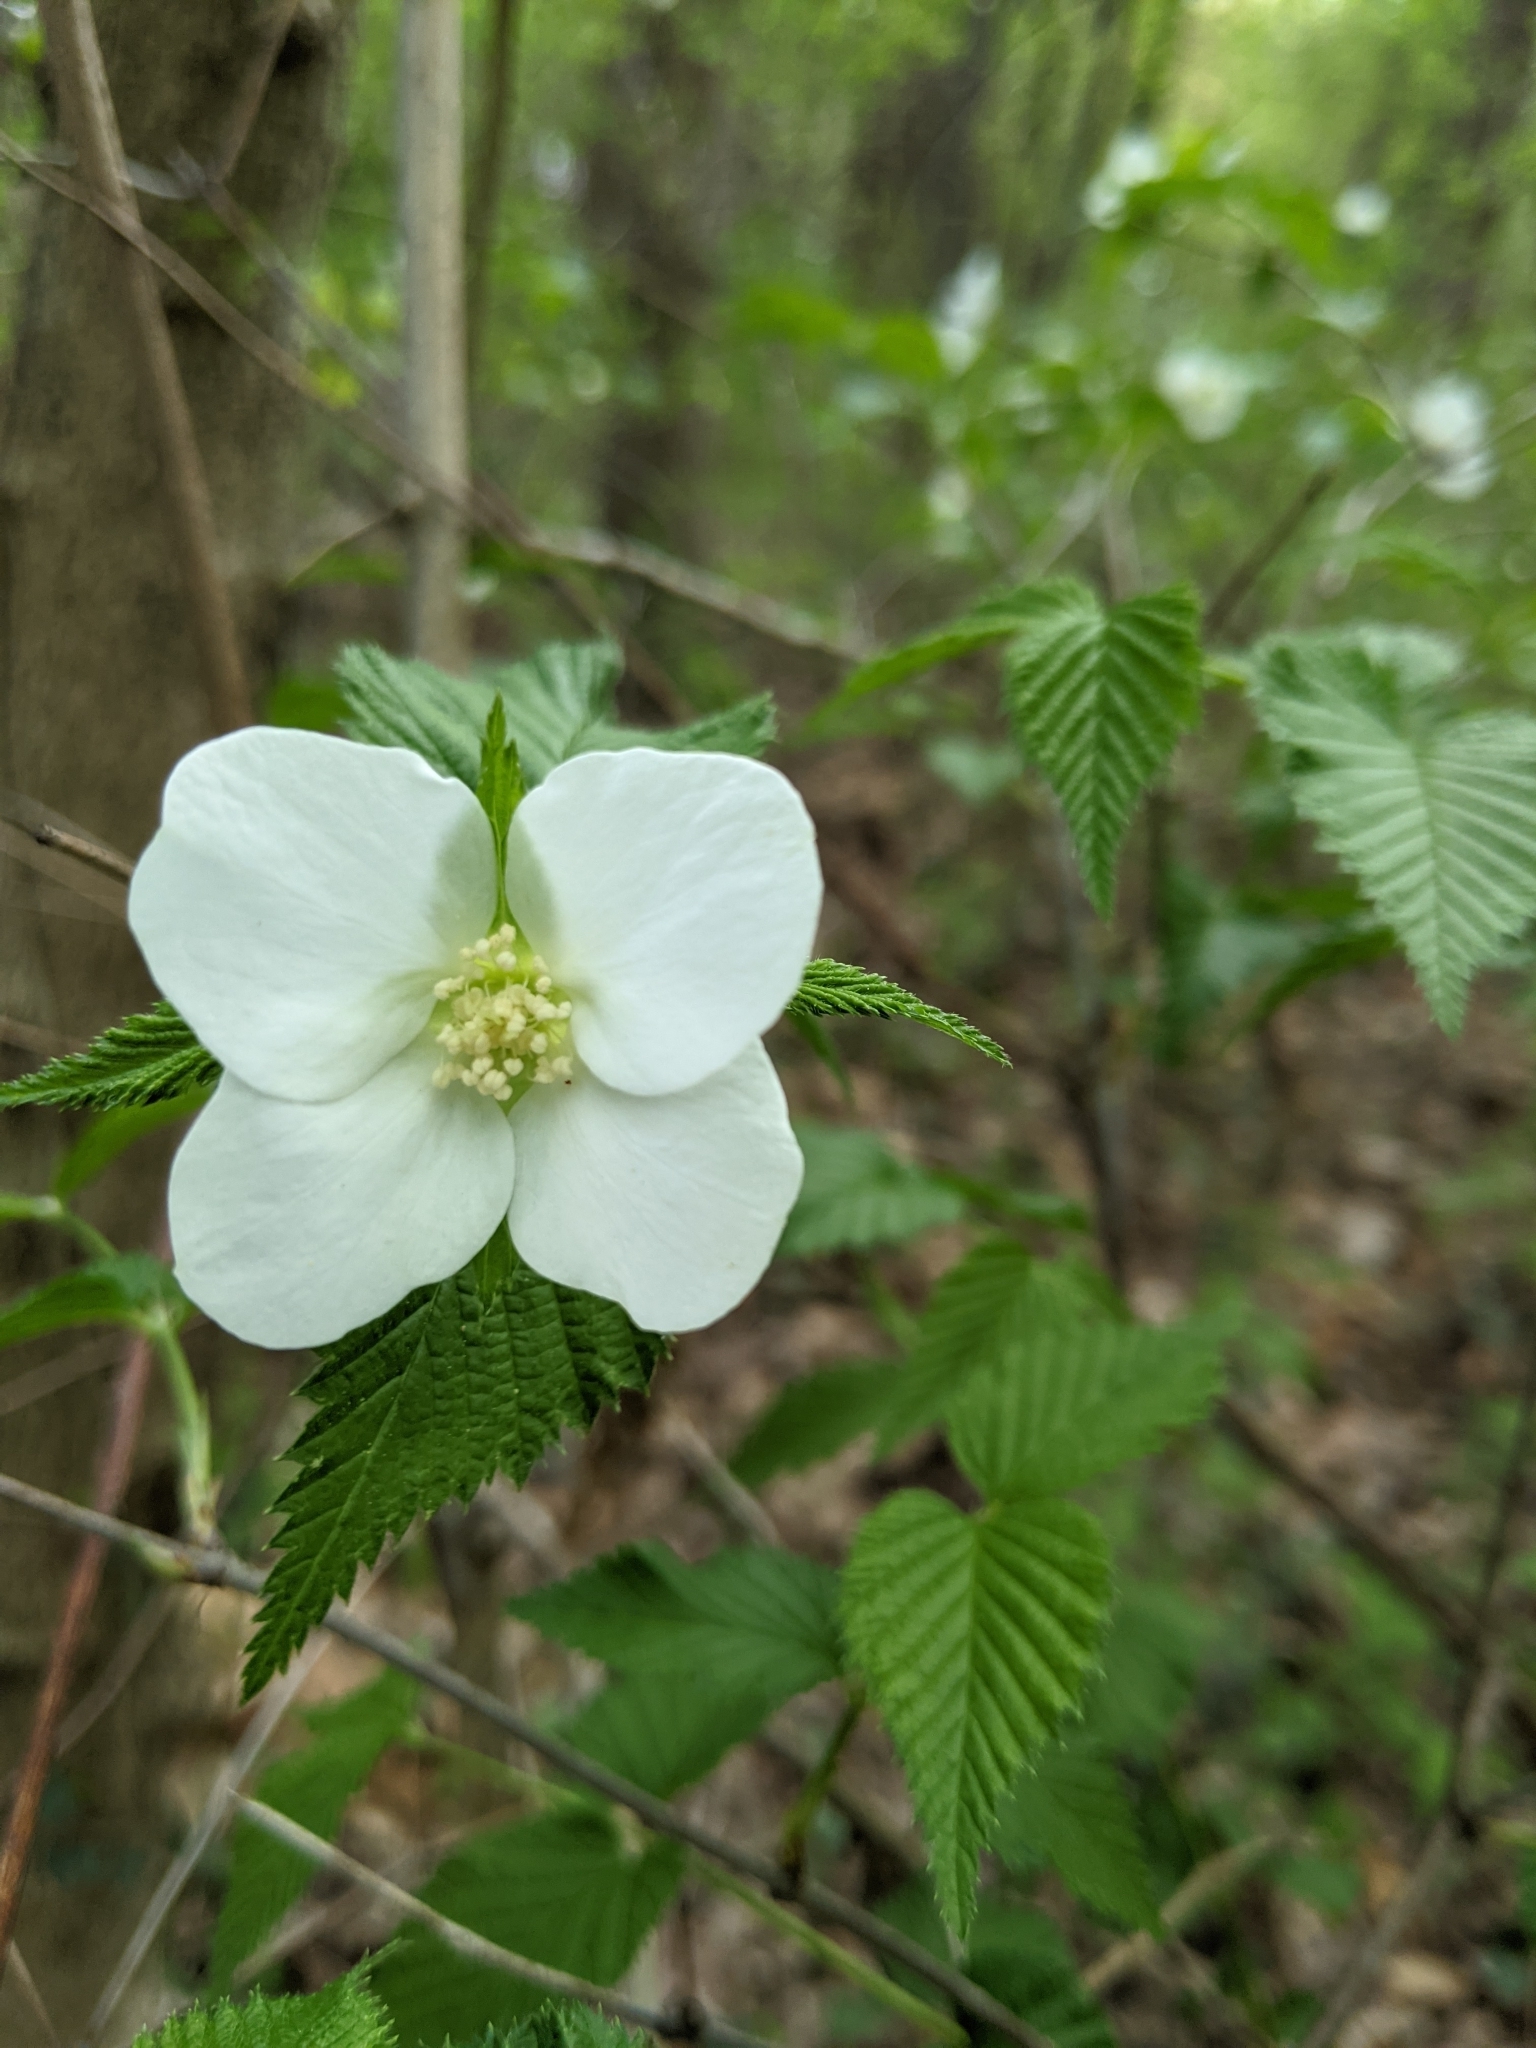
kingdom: Plantae
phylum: Tracheophyta
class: Magnoliopsida
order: Rosales
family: Rosaceae
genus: Rhodotypos
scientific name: Rhodotypos scandens
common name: Jetbead
